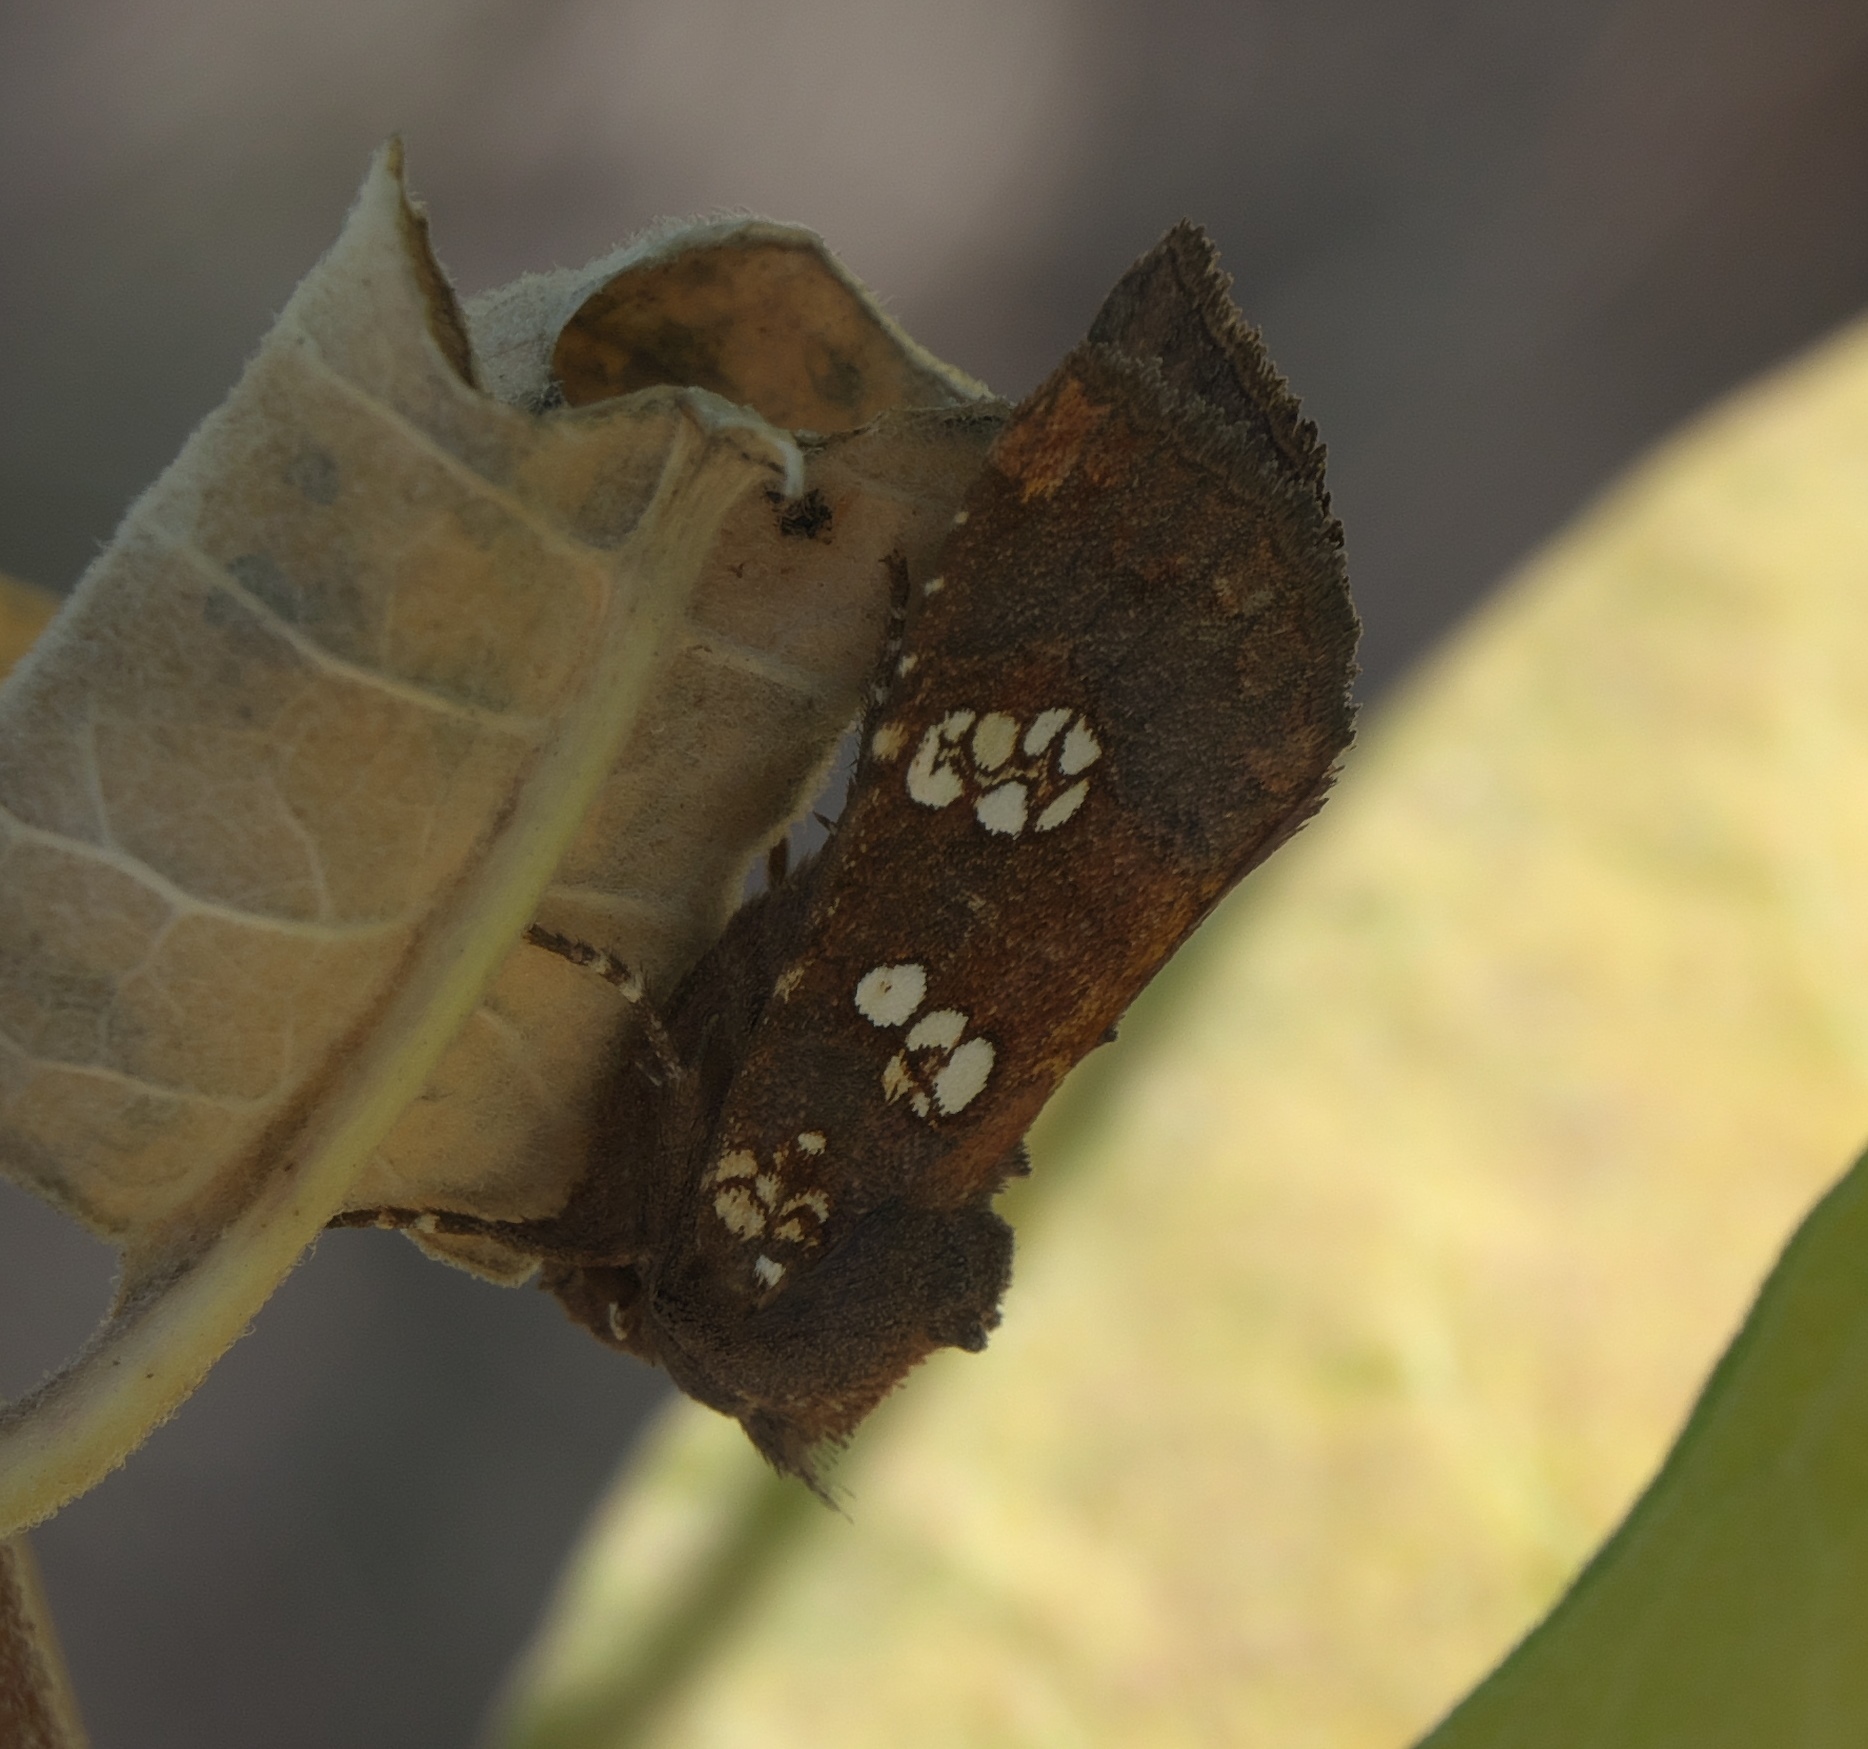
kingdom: Animalia
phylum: Arthropoda
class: Insecta
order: Lepidoptera
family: Noctuidae
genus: Papaipema
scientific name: Papaipema insulidens
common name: Ragwort stem borer moth
